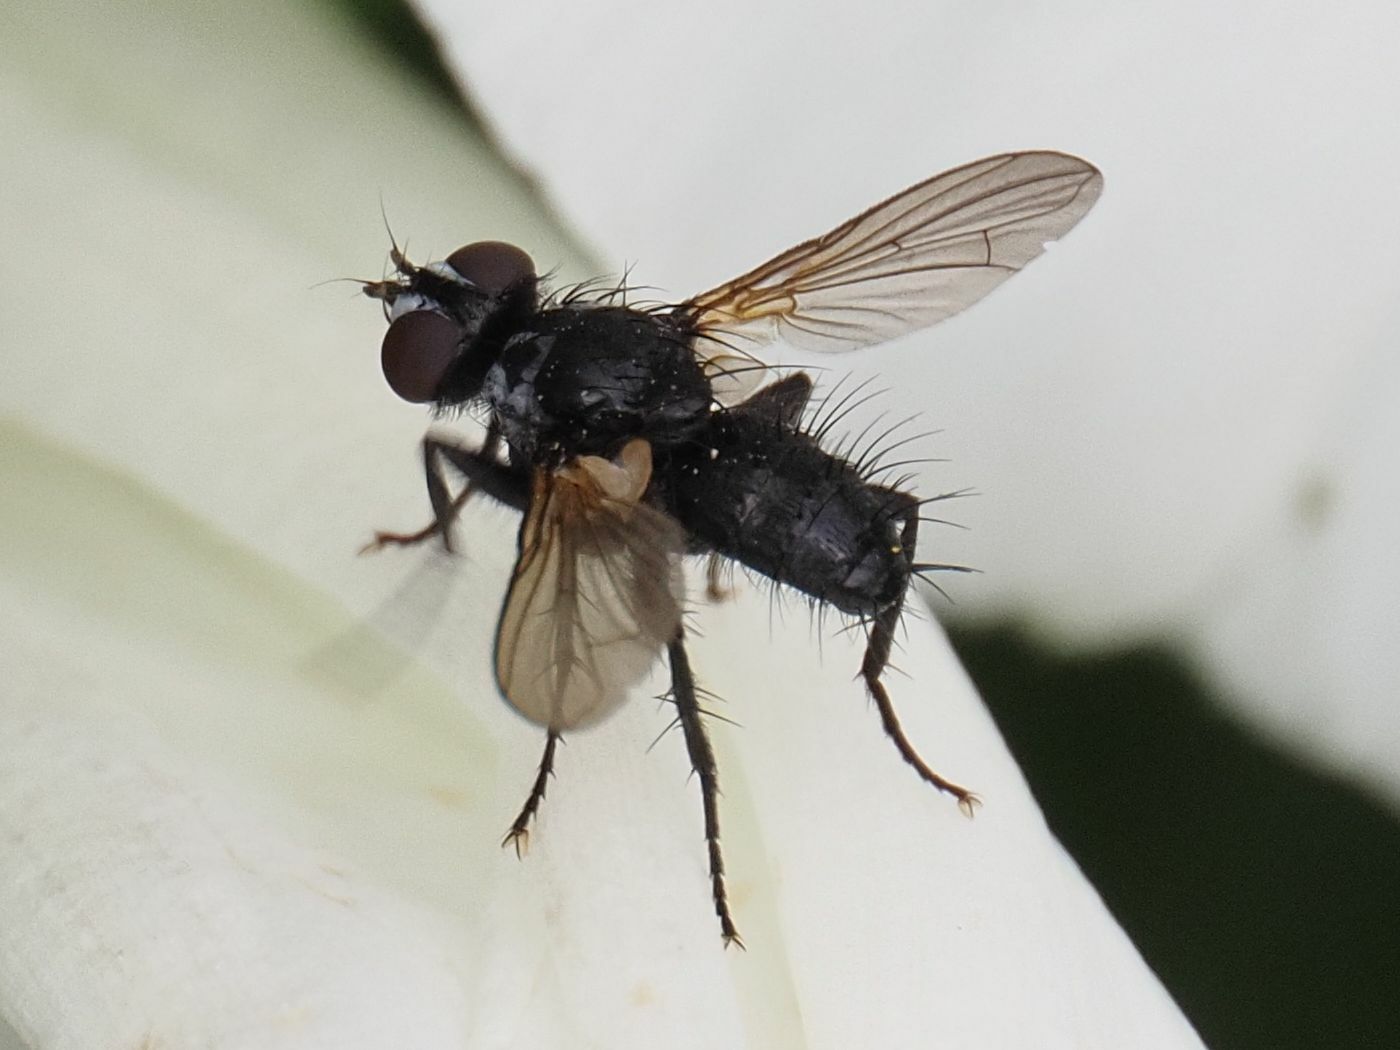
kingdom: Animalia
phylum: Arthropoda
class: Insecta
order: Diptera
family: Tachinidae
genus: Phania
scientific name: Phania funesta
